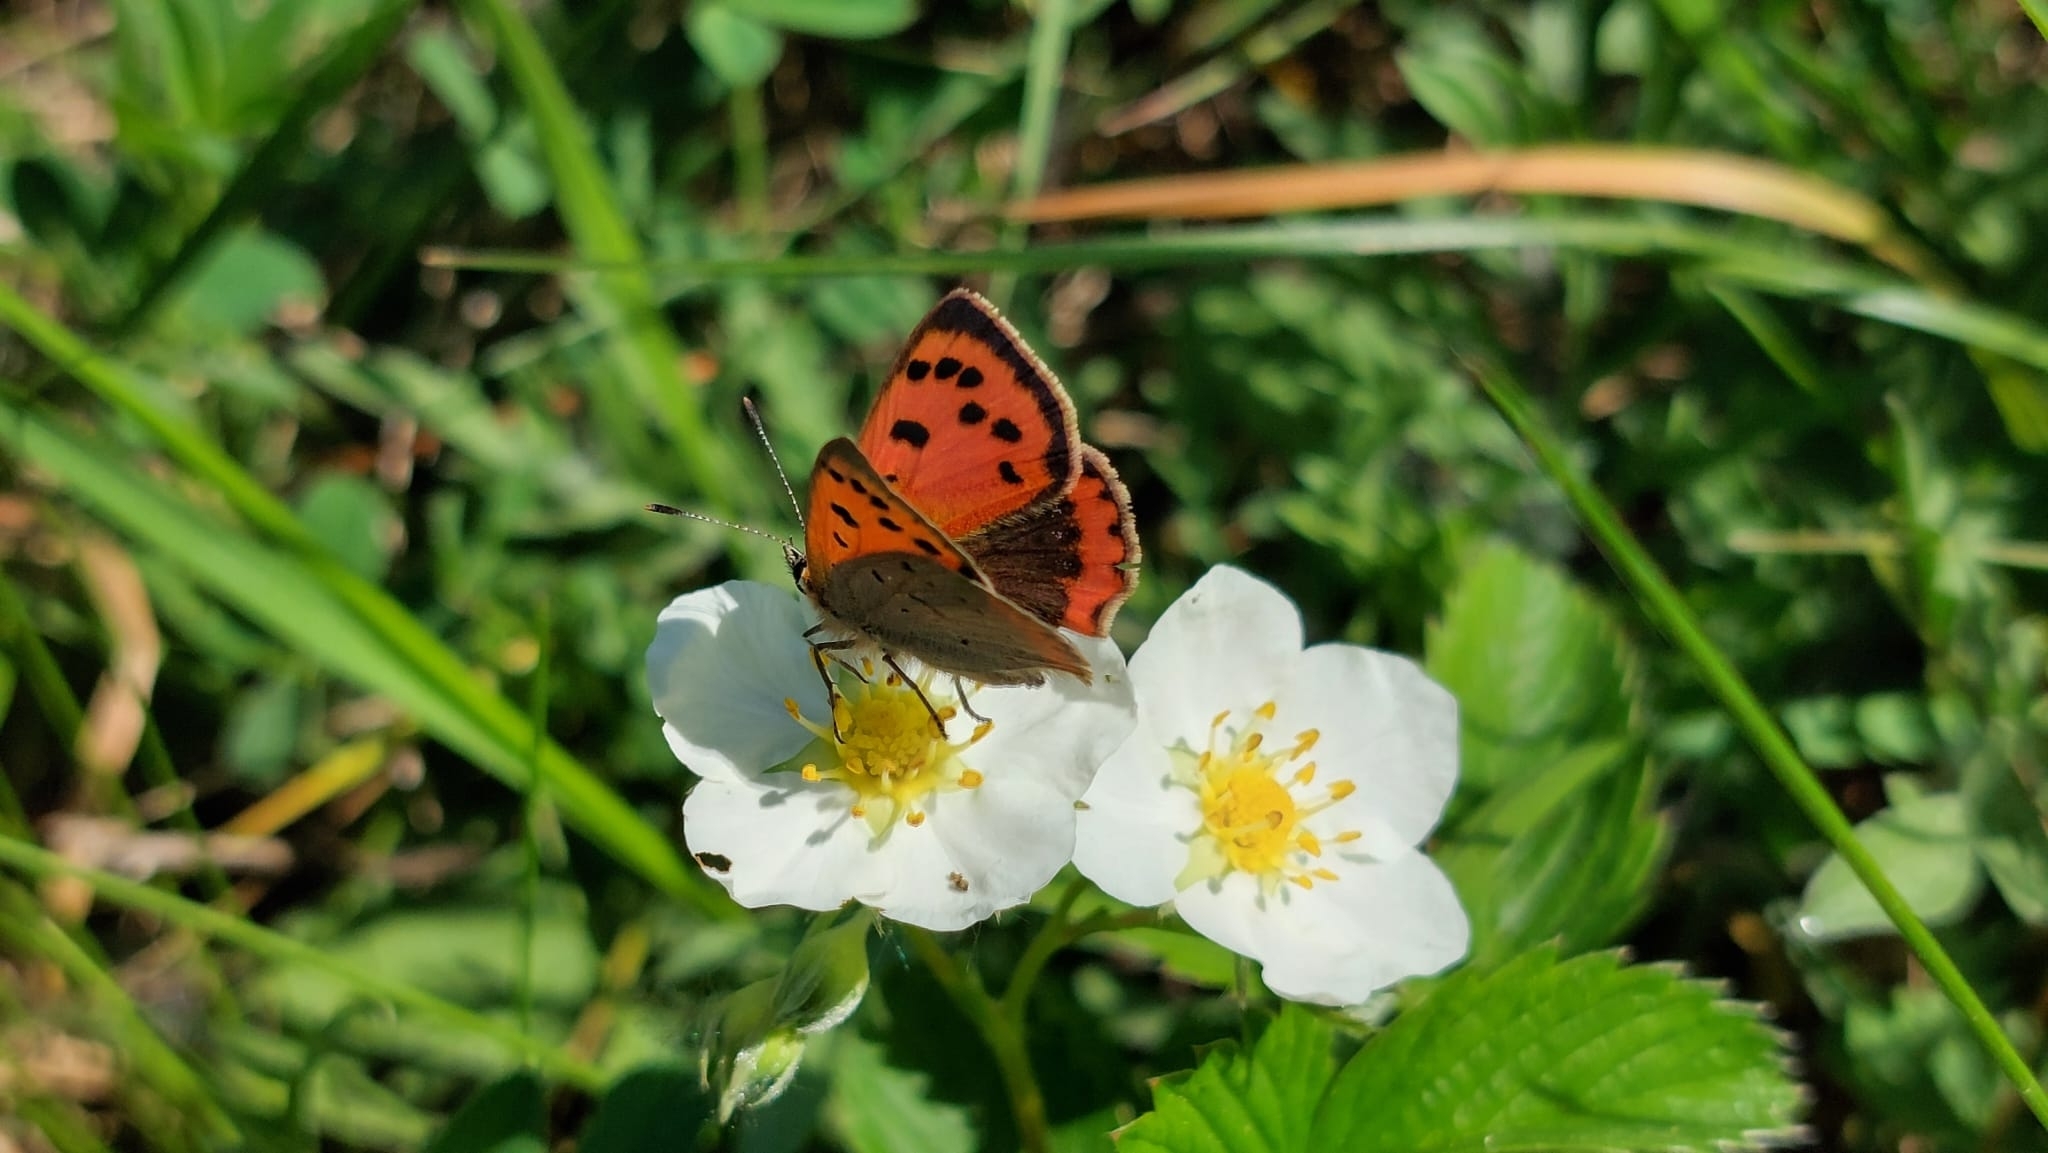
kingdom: Animalia
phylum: Arthropoda
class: Insecta
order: Lepidoptera
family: Lycaenidae
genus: Lycaena
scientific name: Lycaena phlaeas
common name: Small copper
